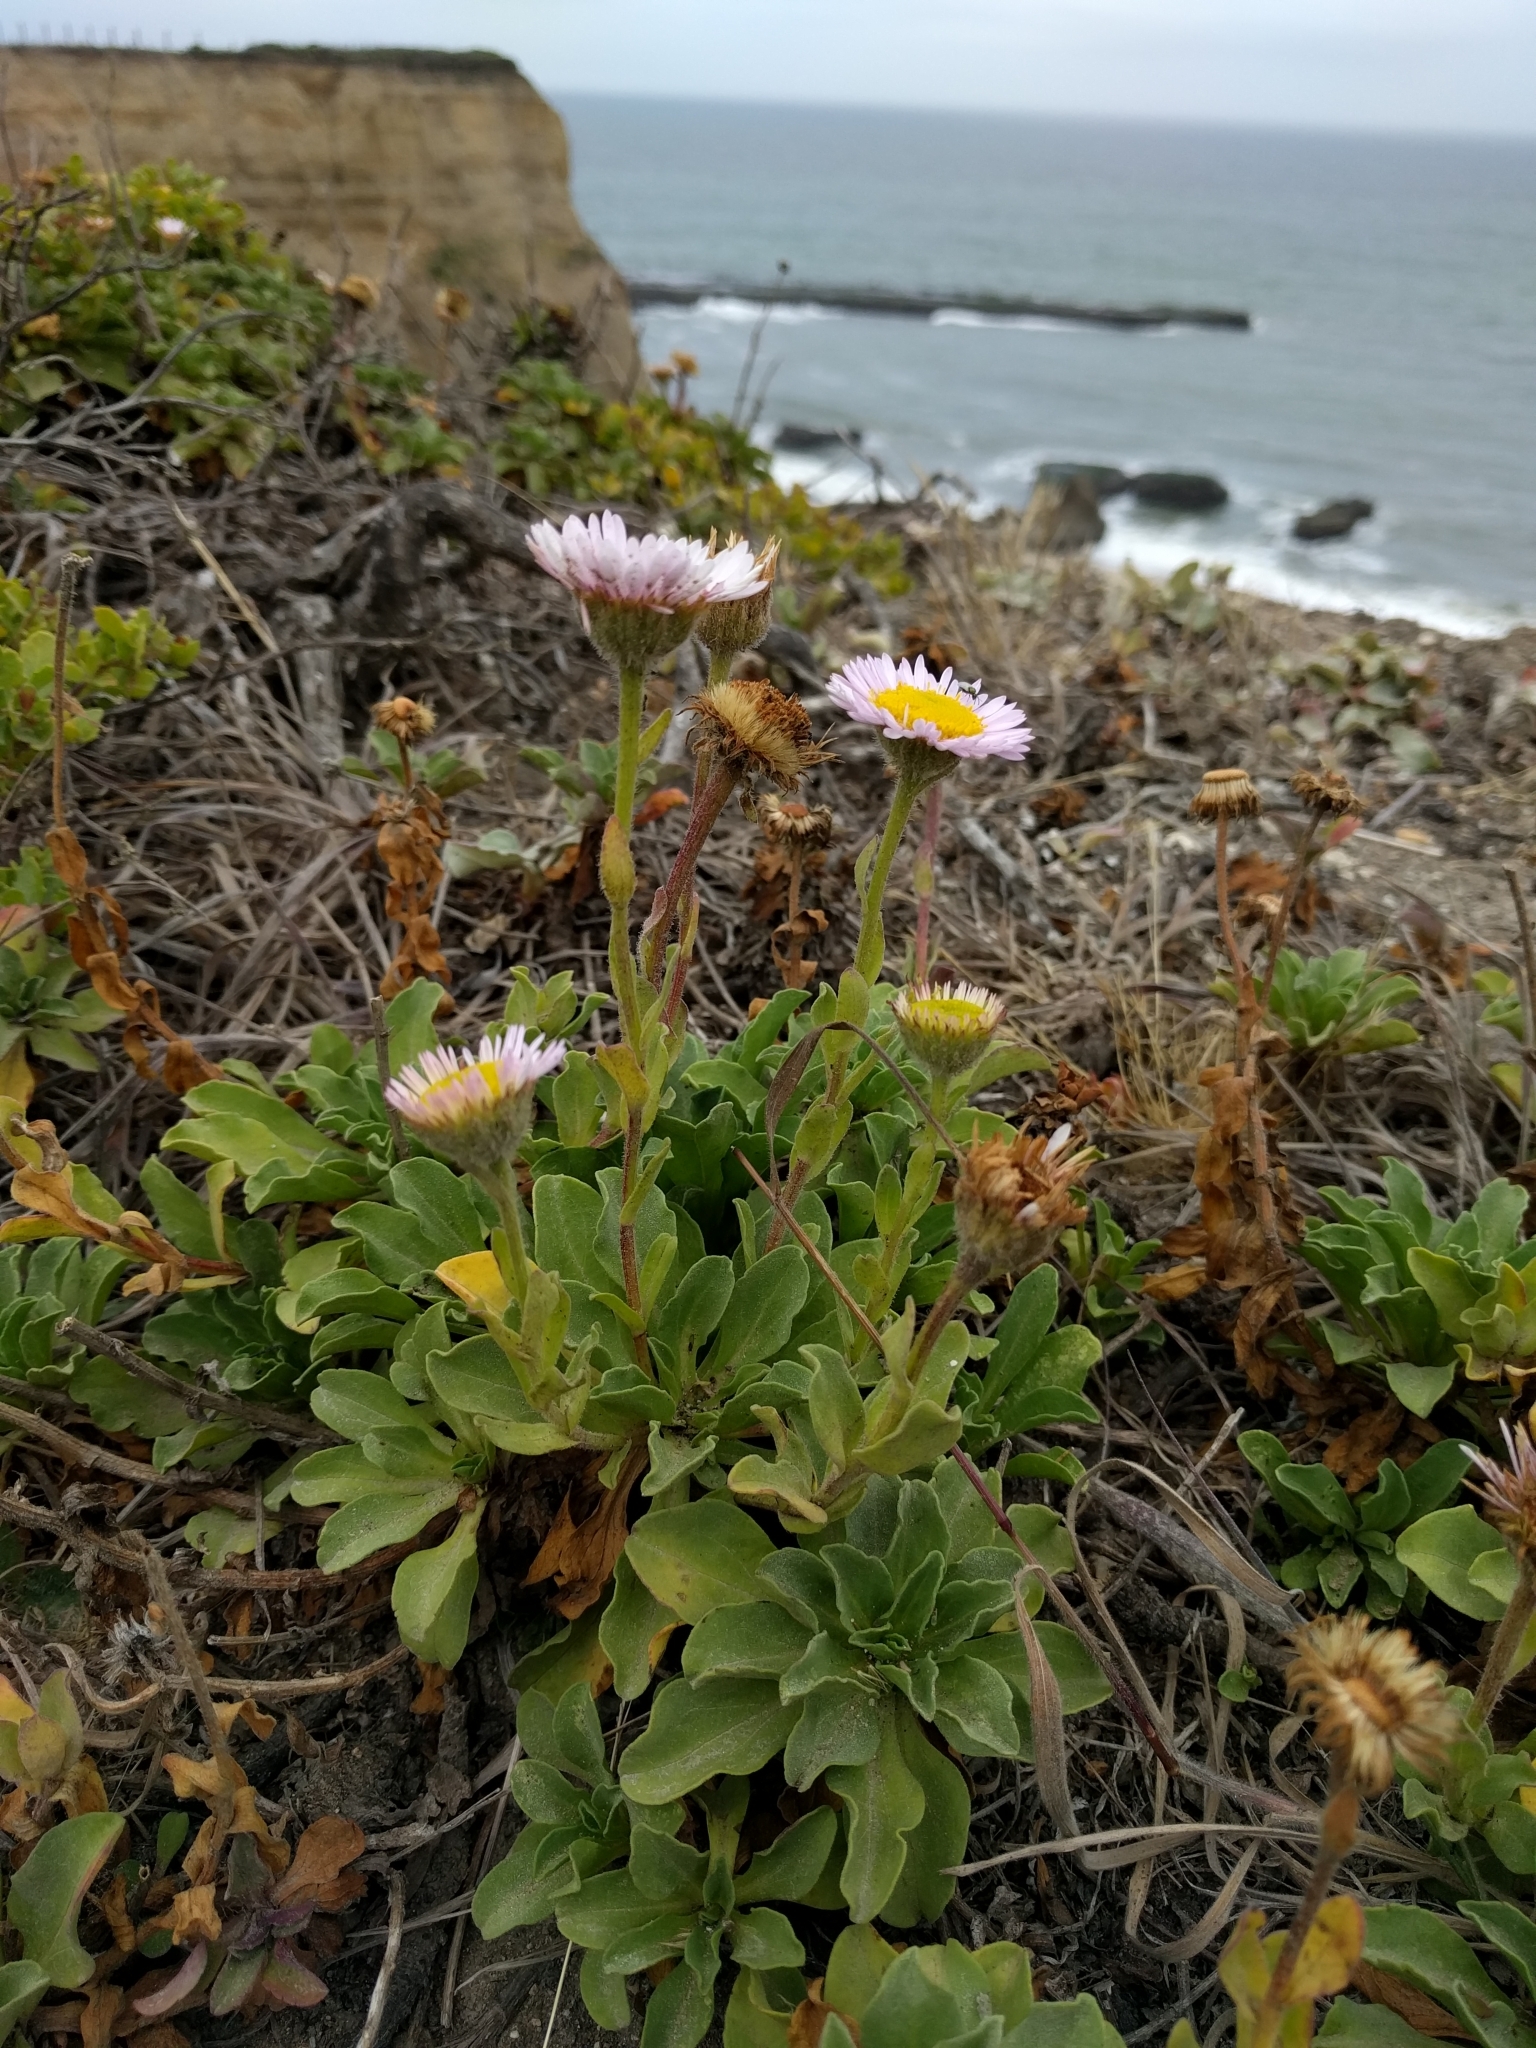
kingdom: Plantae
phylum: Tracheophyta
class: Magnoliopsida
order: Asterales
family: Asteraceae
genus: Erigeron
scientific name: Erigeron glaucus
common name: Seaside daisy
